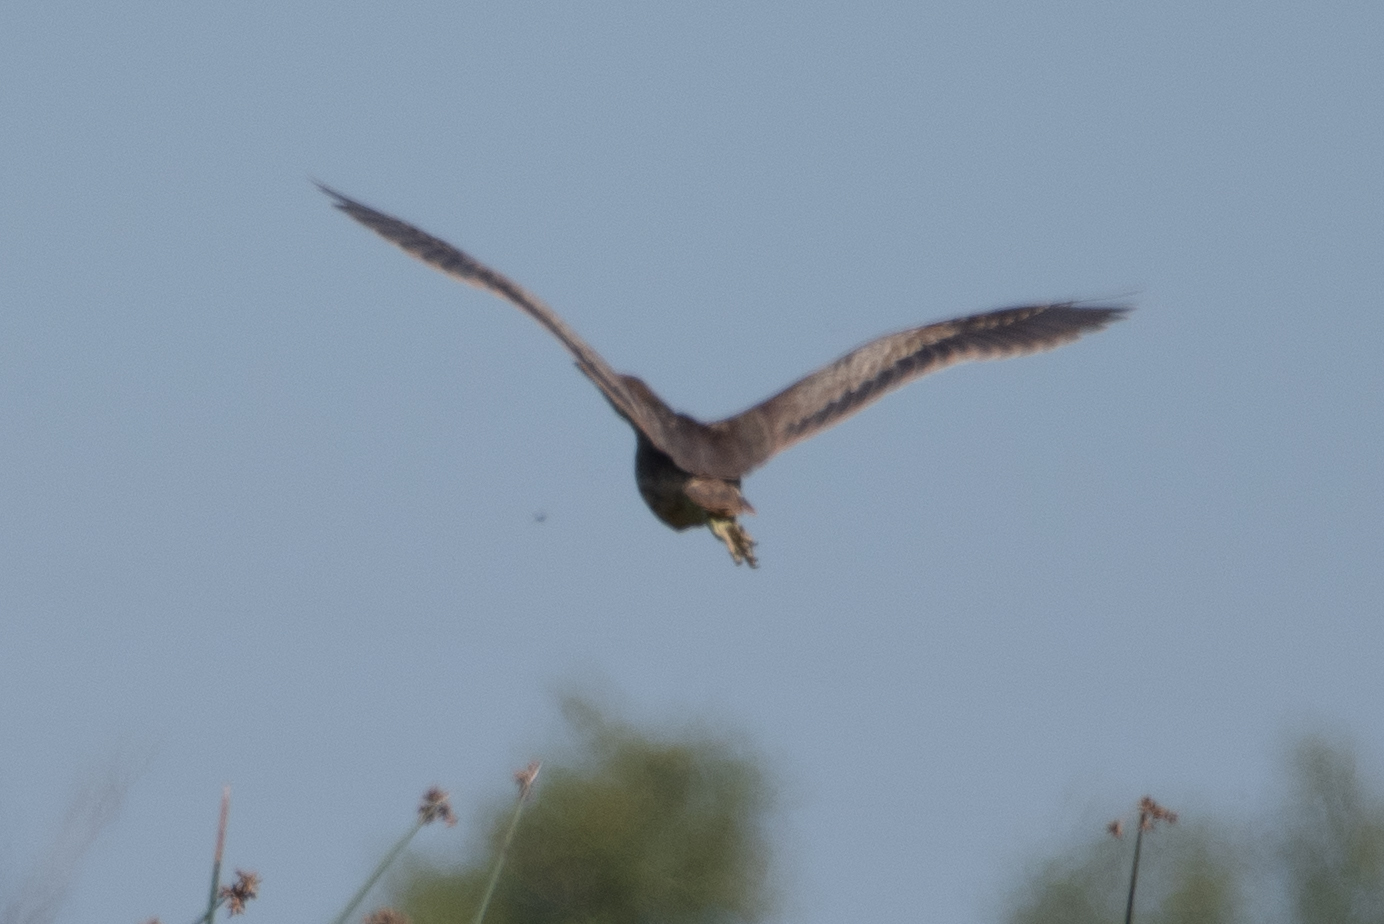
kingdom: Animalia
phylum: Chordata
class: Aves
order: Pelecaniformes
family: Ardeidae
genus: Botaurus
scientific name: Botaurus lentiginosus
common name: American bittern
